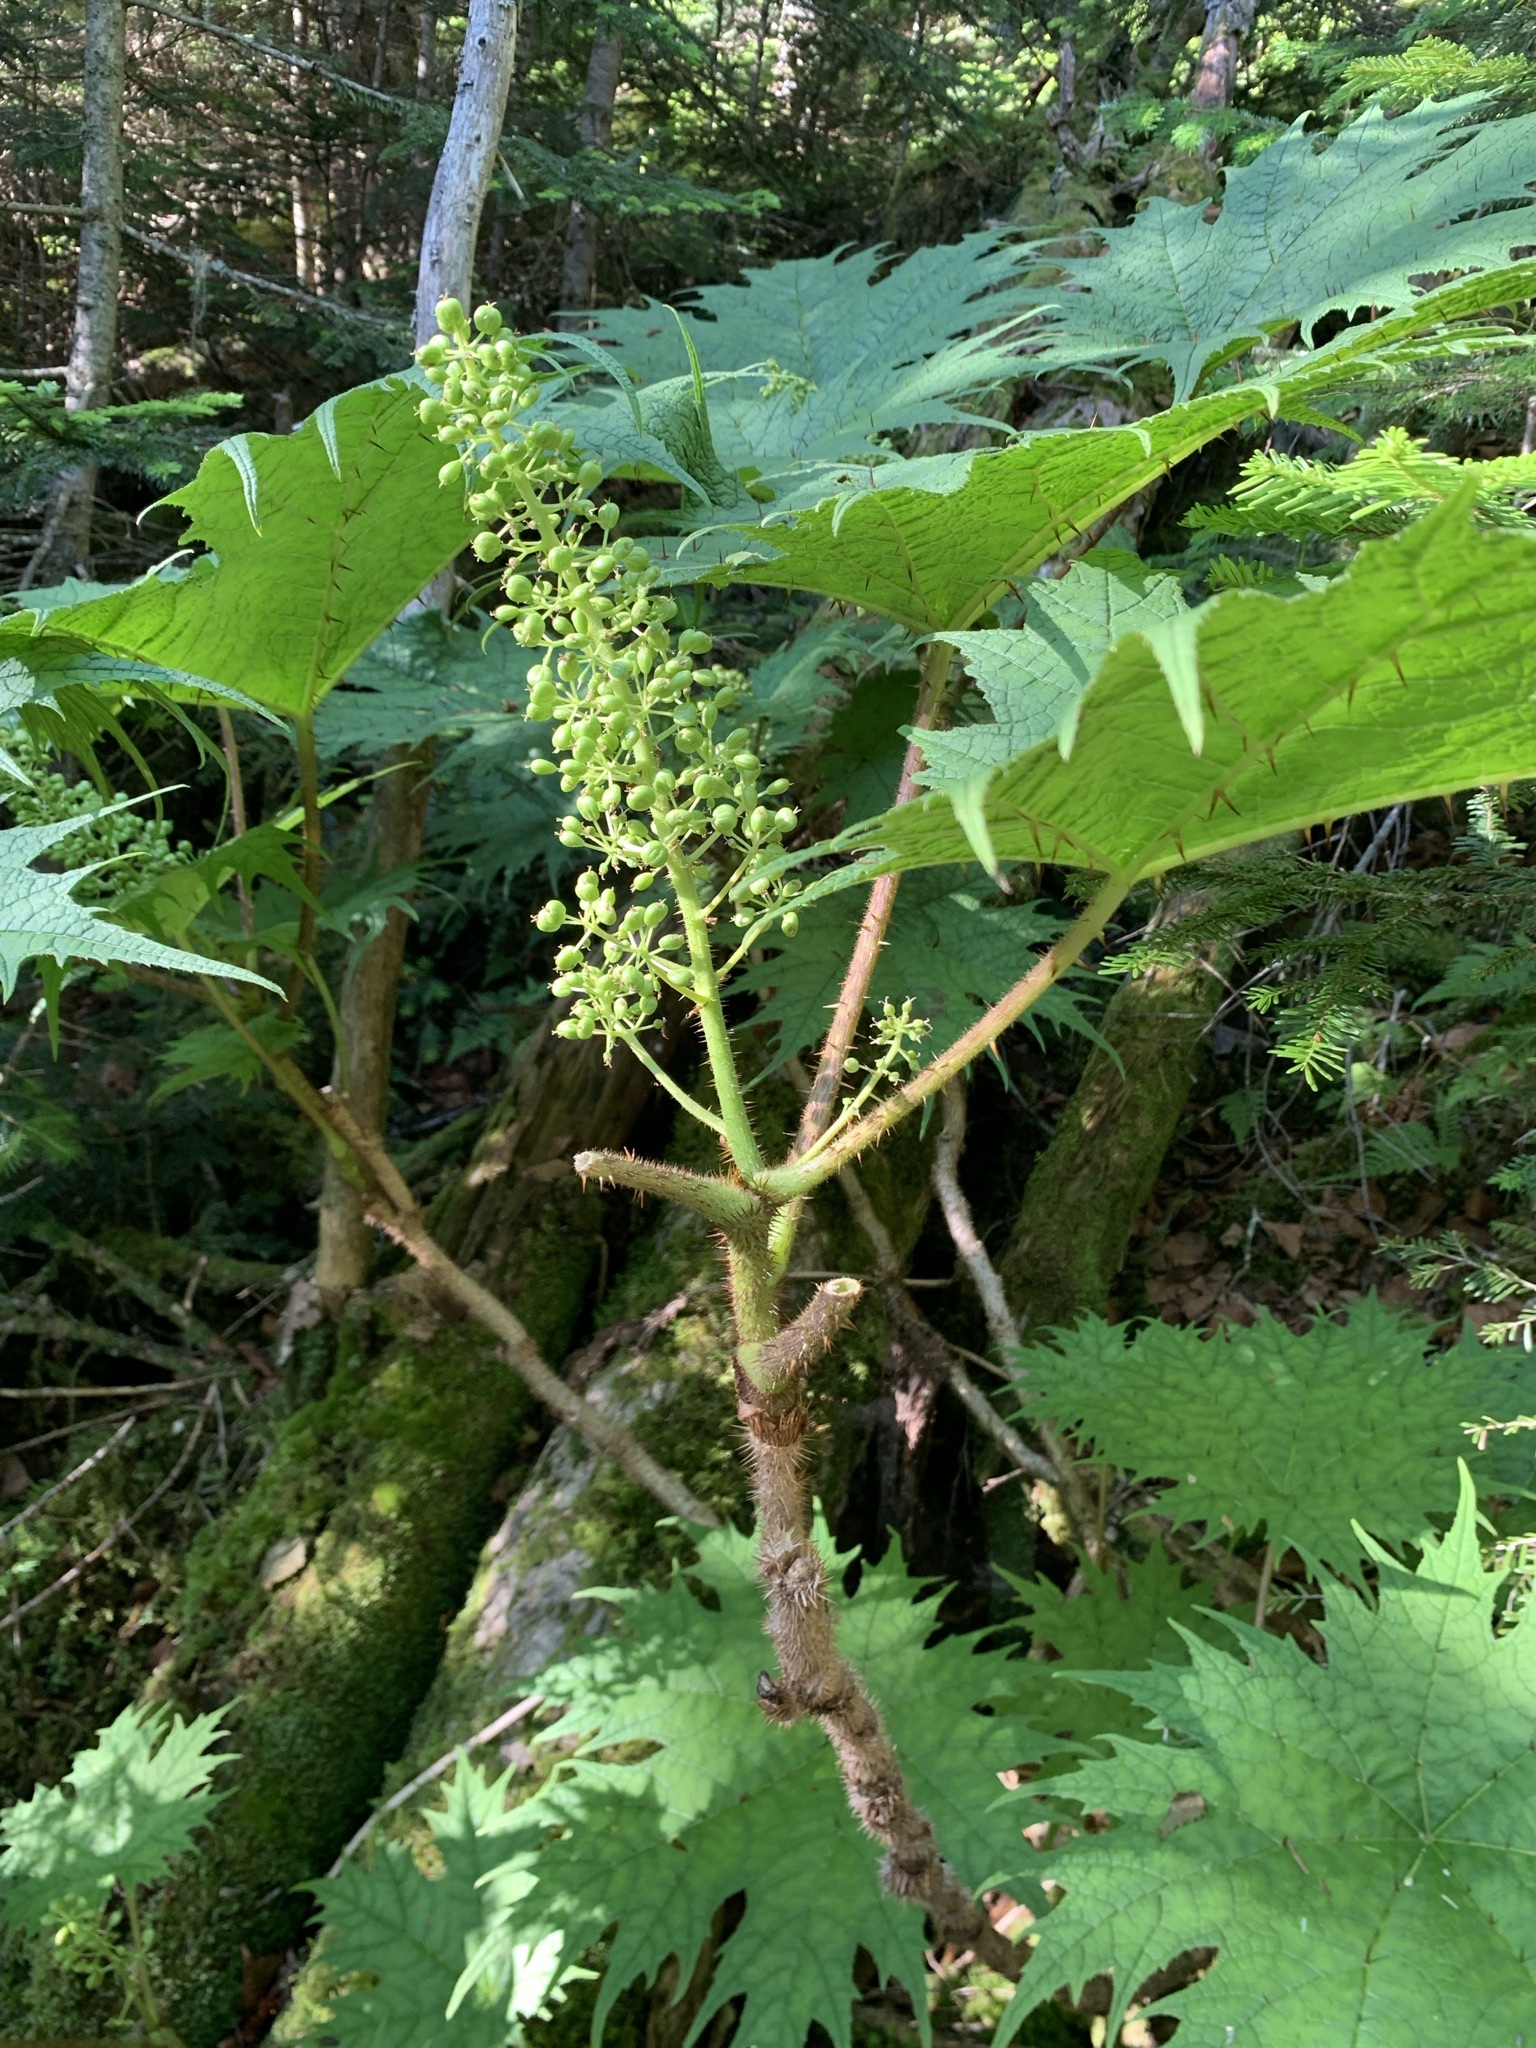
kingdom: Plantae
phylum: Tracheophyta
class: Magnoliopsida
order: Apiales
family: Araliaceae
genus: Oplopanax
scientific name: Oplopanax japonicus
